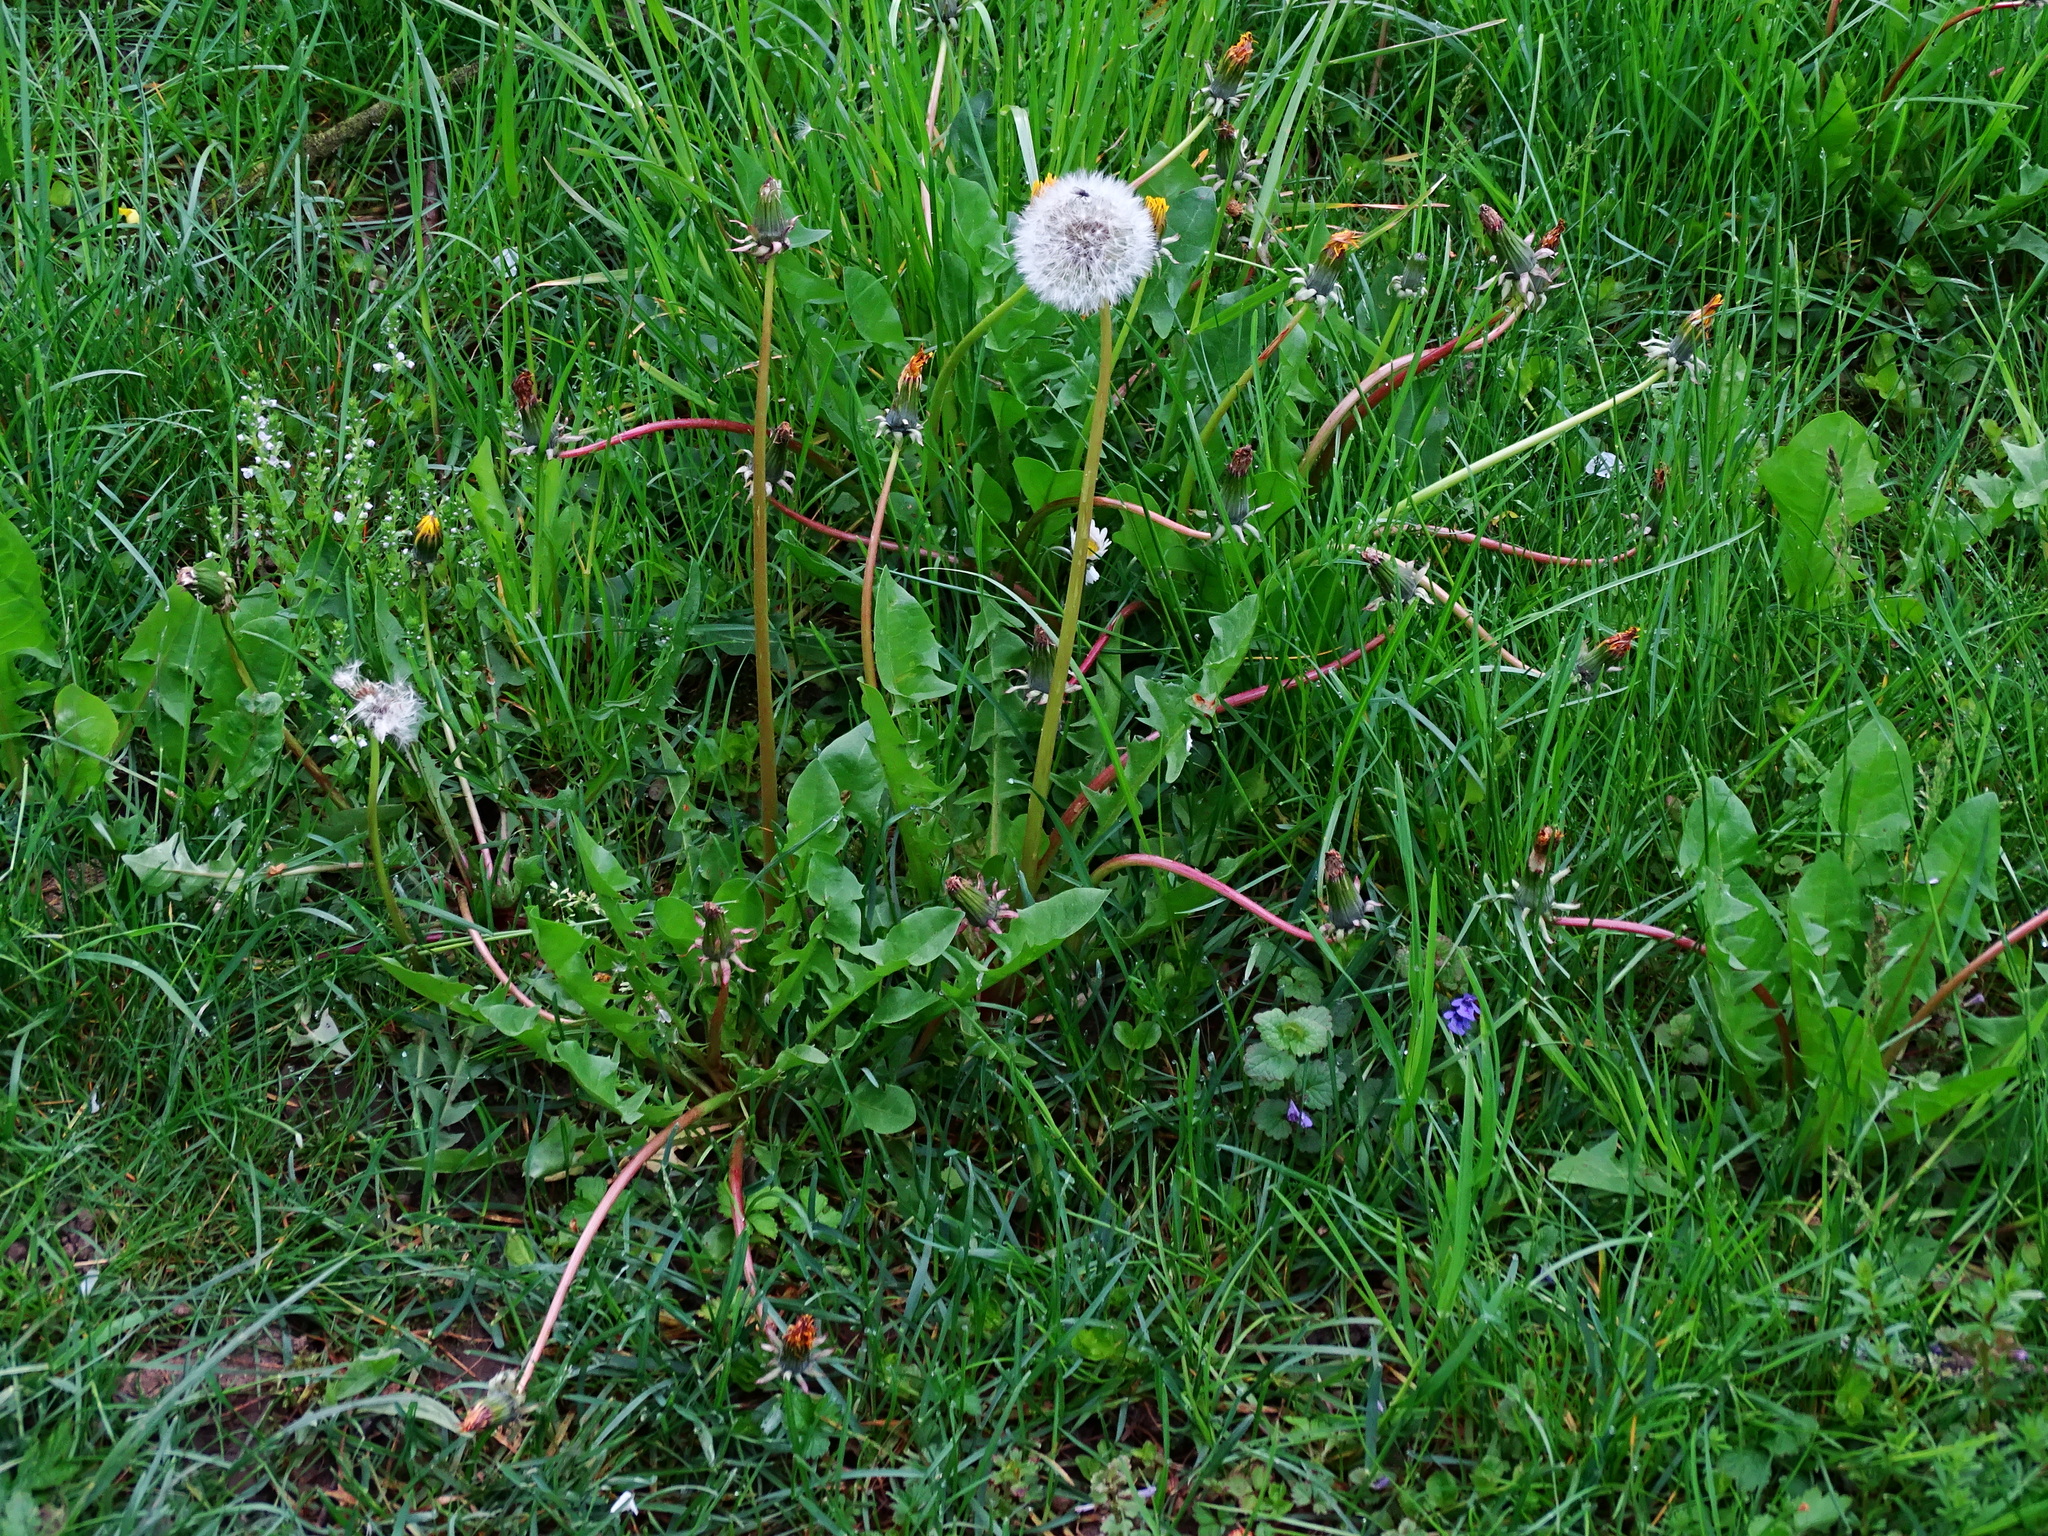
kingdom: Plantae
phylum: Tracheophyta
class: Magnoliopsida
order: Asterales
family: Asteraceae
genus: Taraxacum
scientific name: Taraxacum
